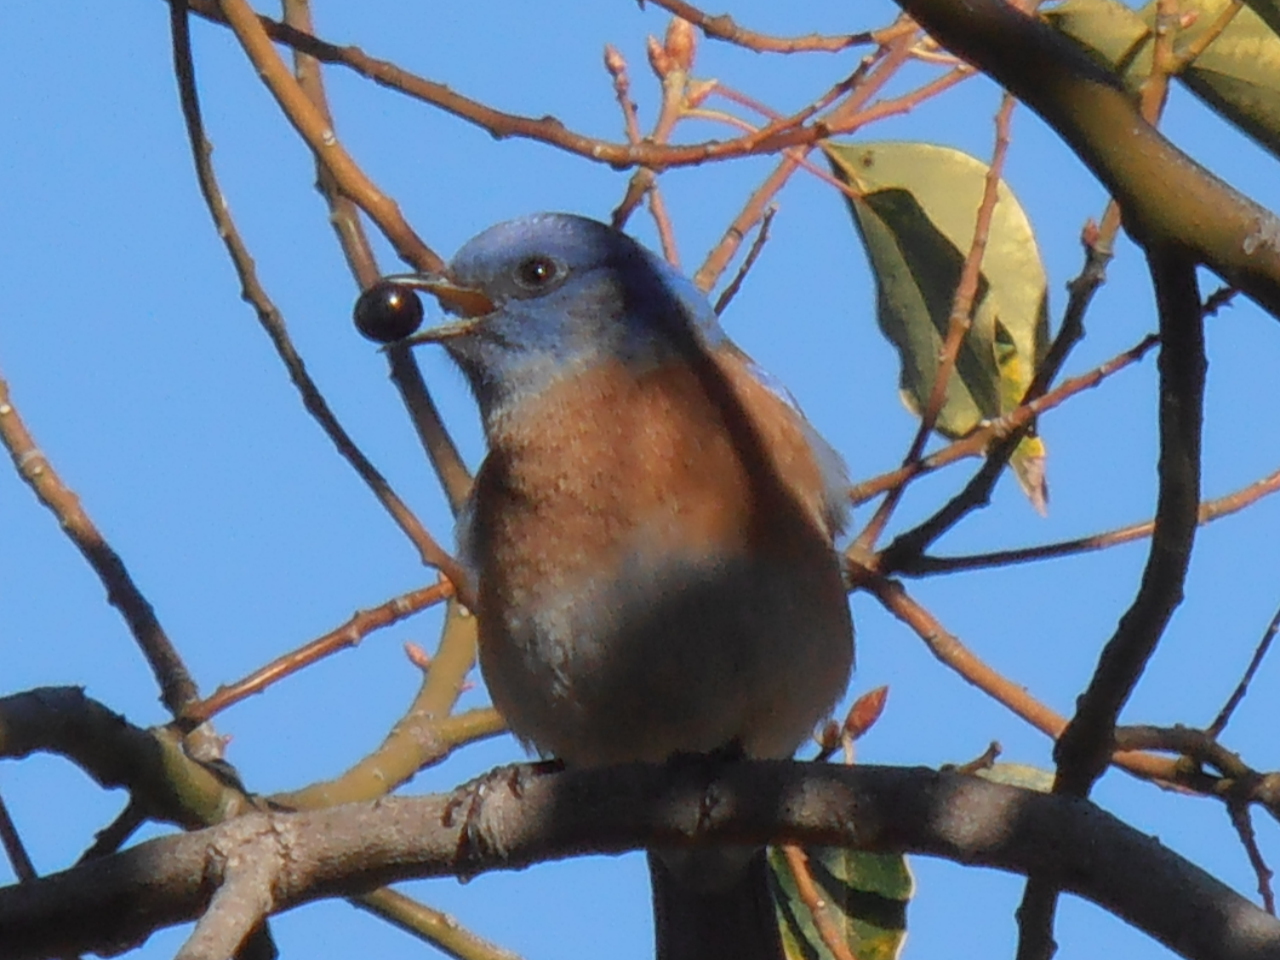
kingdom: Animalia
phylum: Chordata
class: Aves
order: Passeriformes
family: Turdidae
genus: Sialia
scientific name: Sialia mexicana
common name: Western bluebird
